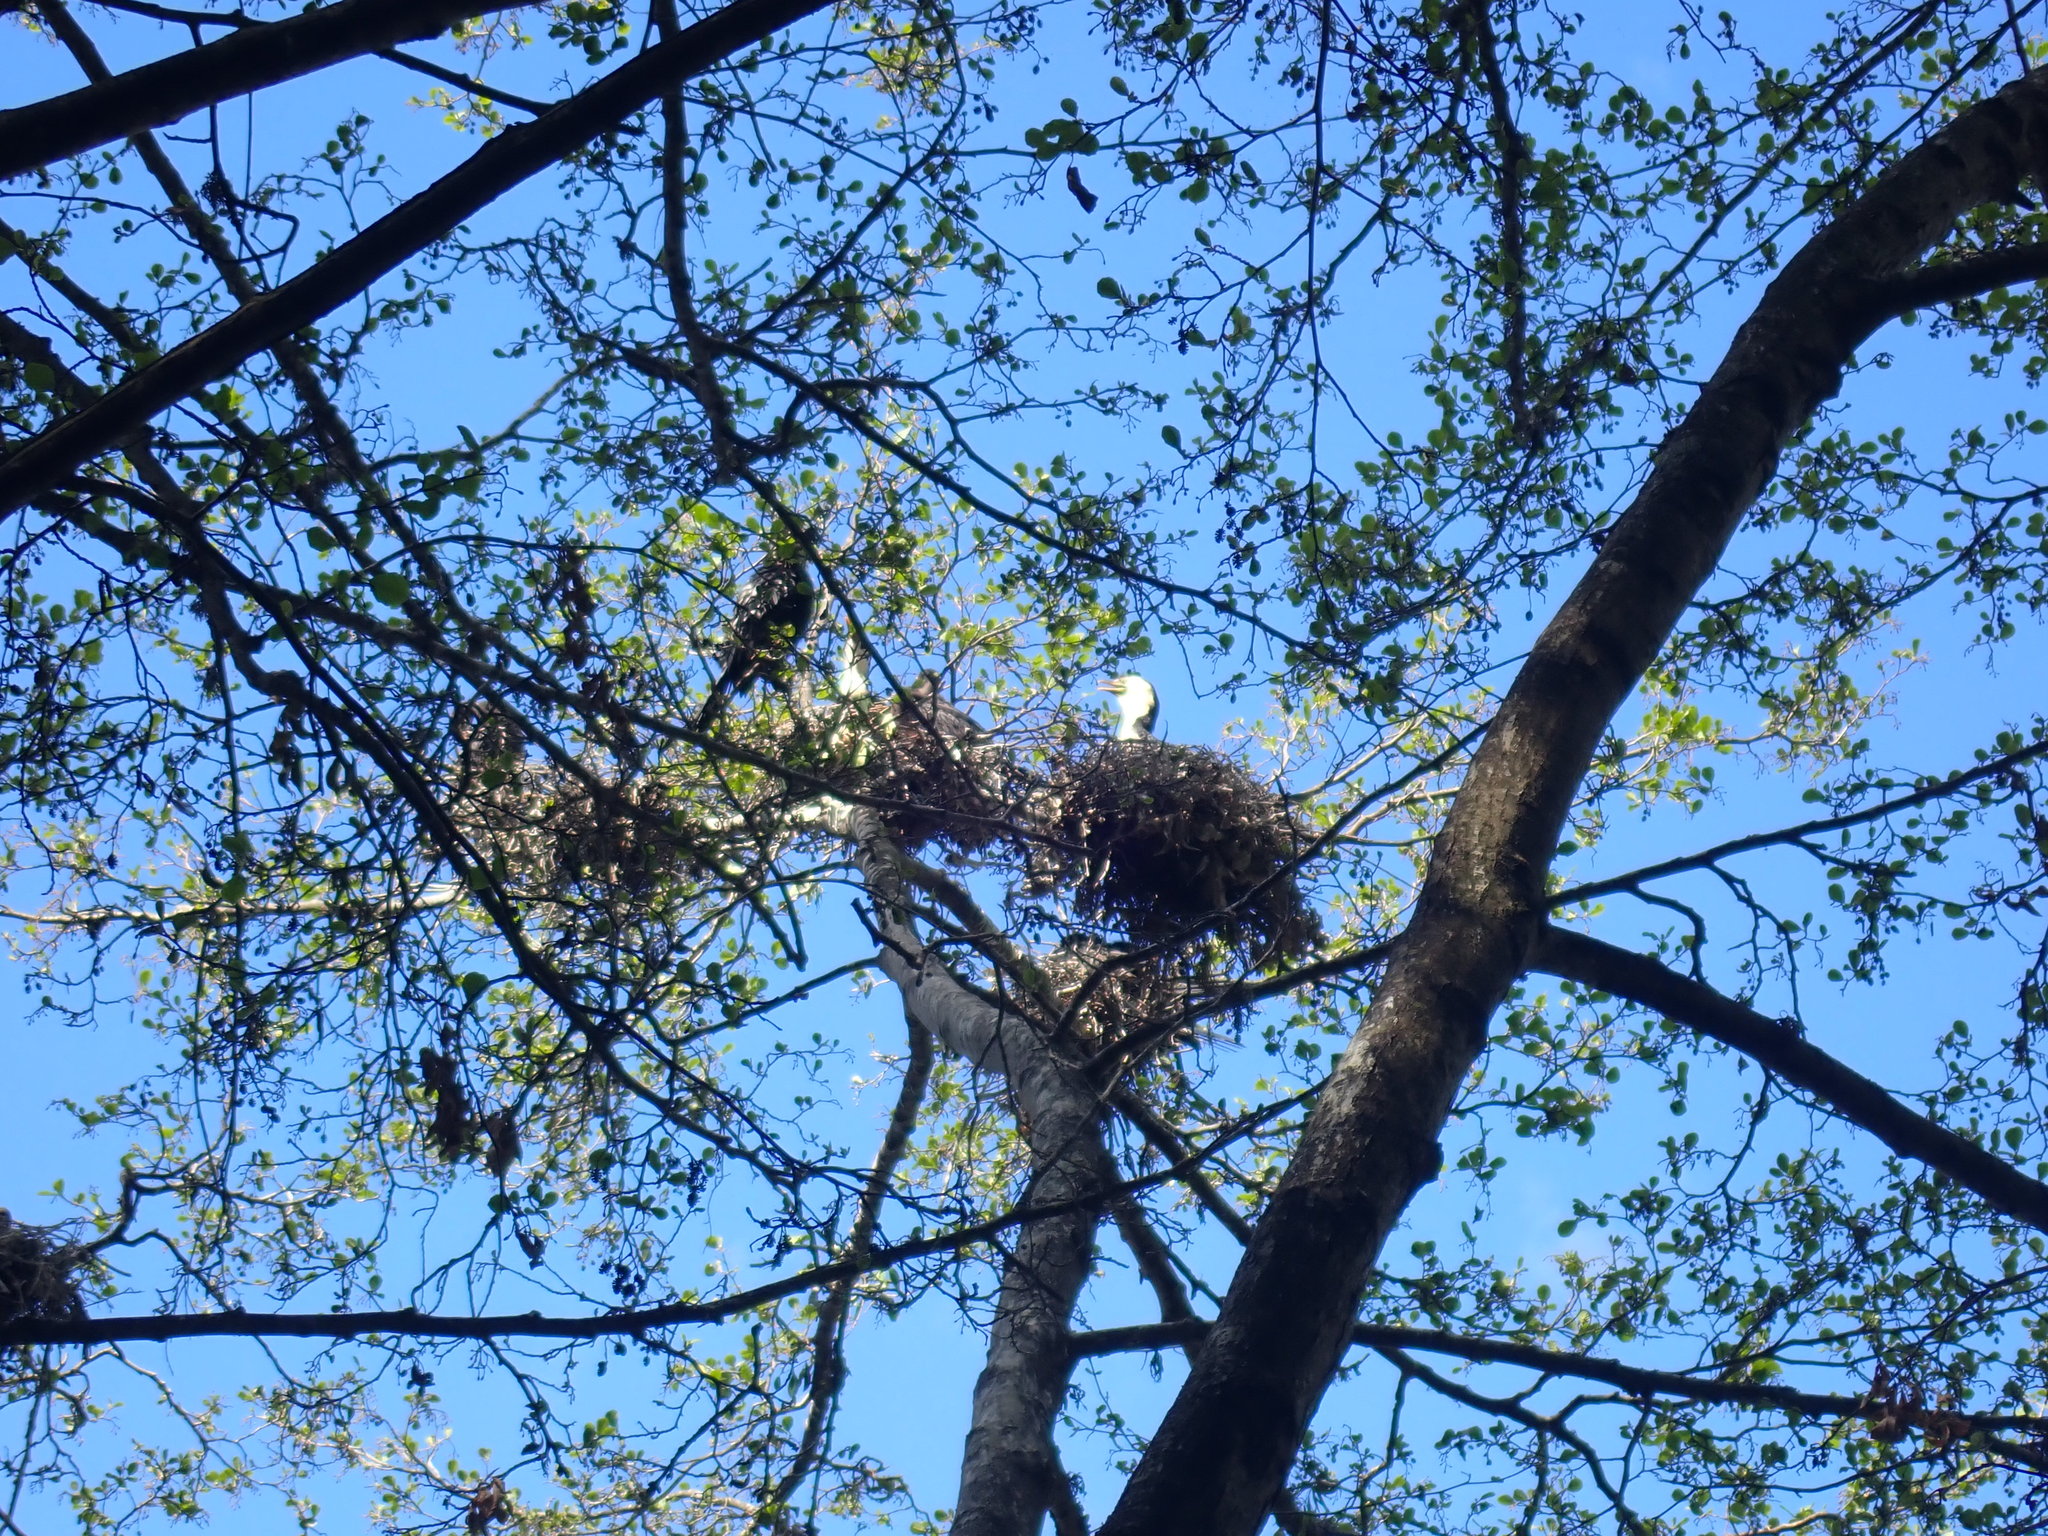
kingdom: Animalia
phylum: Chordata
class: Aves
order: Suliformes
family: Phalacrocoracidae
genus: Microcarbo
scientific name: Microcarbo melanoleucos
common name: Little pied cormorant
